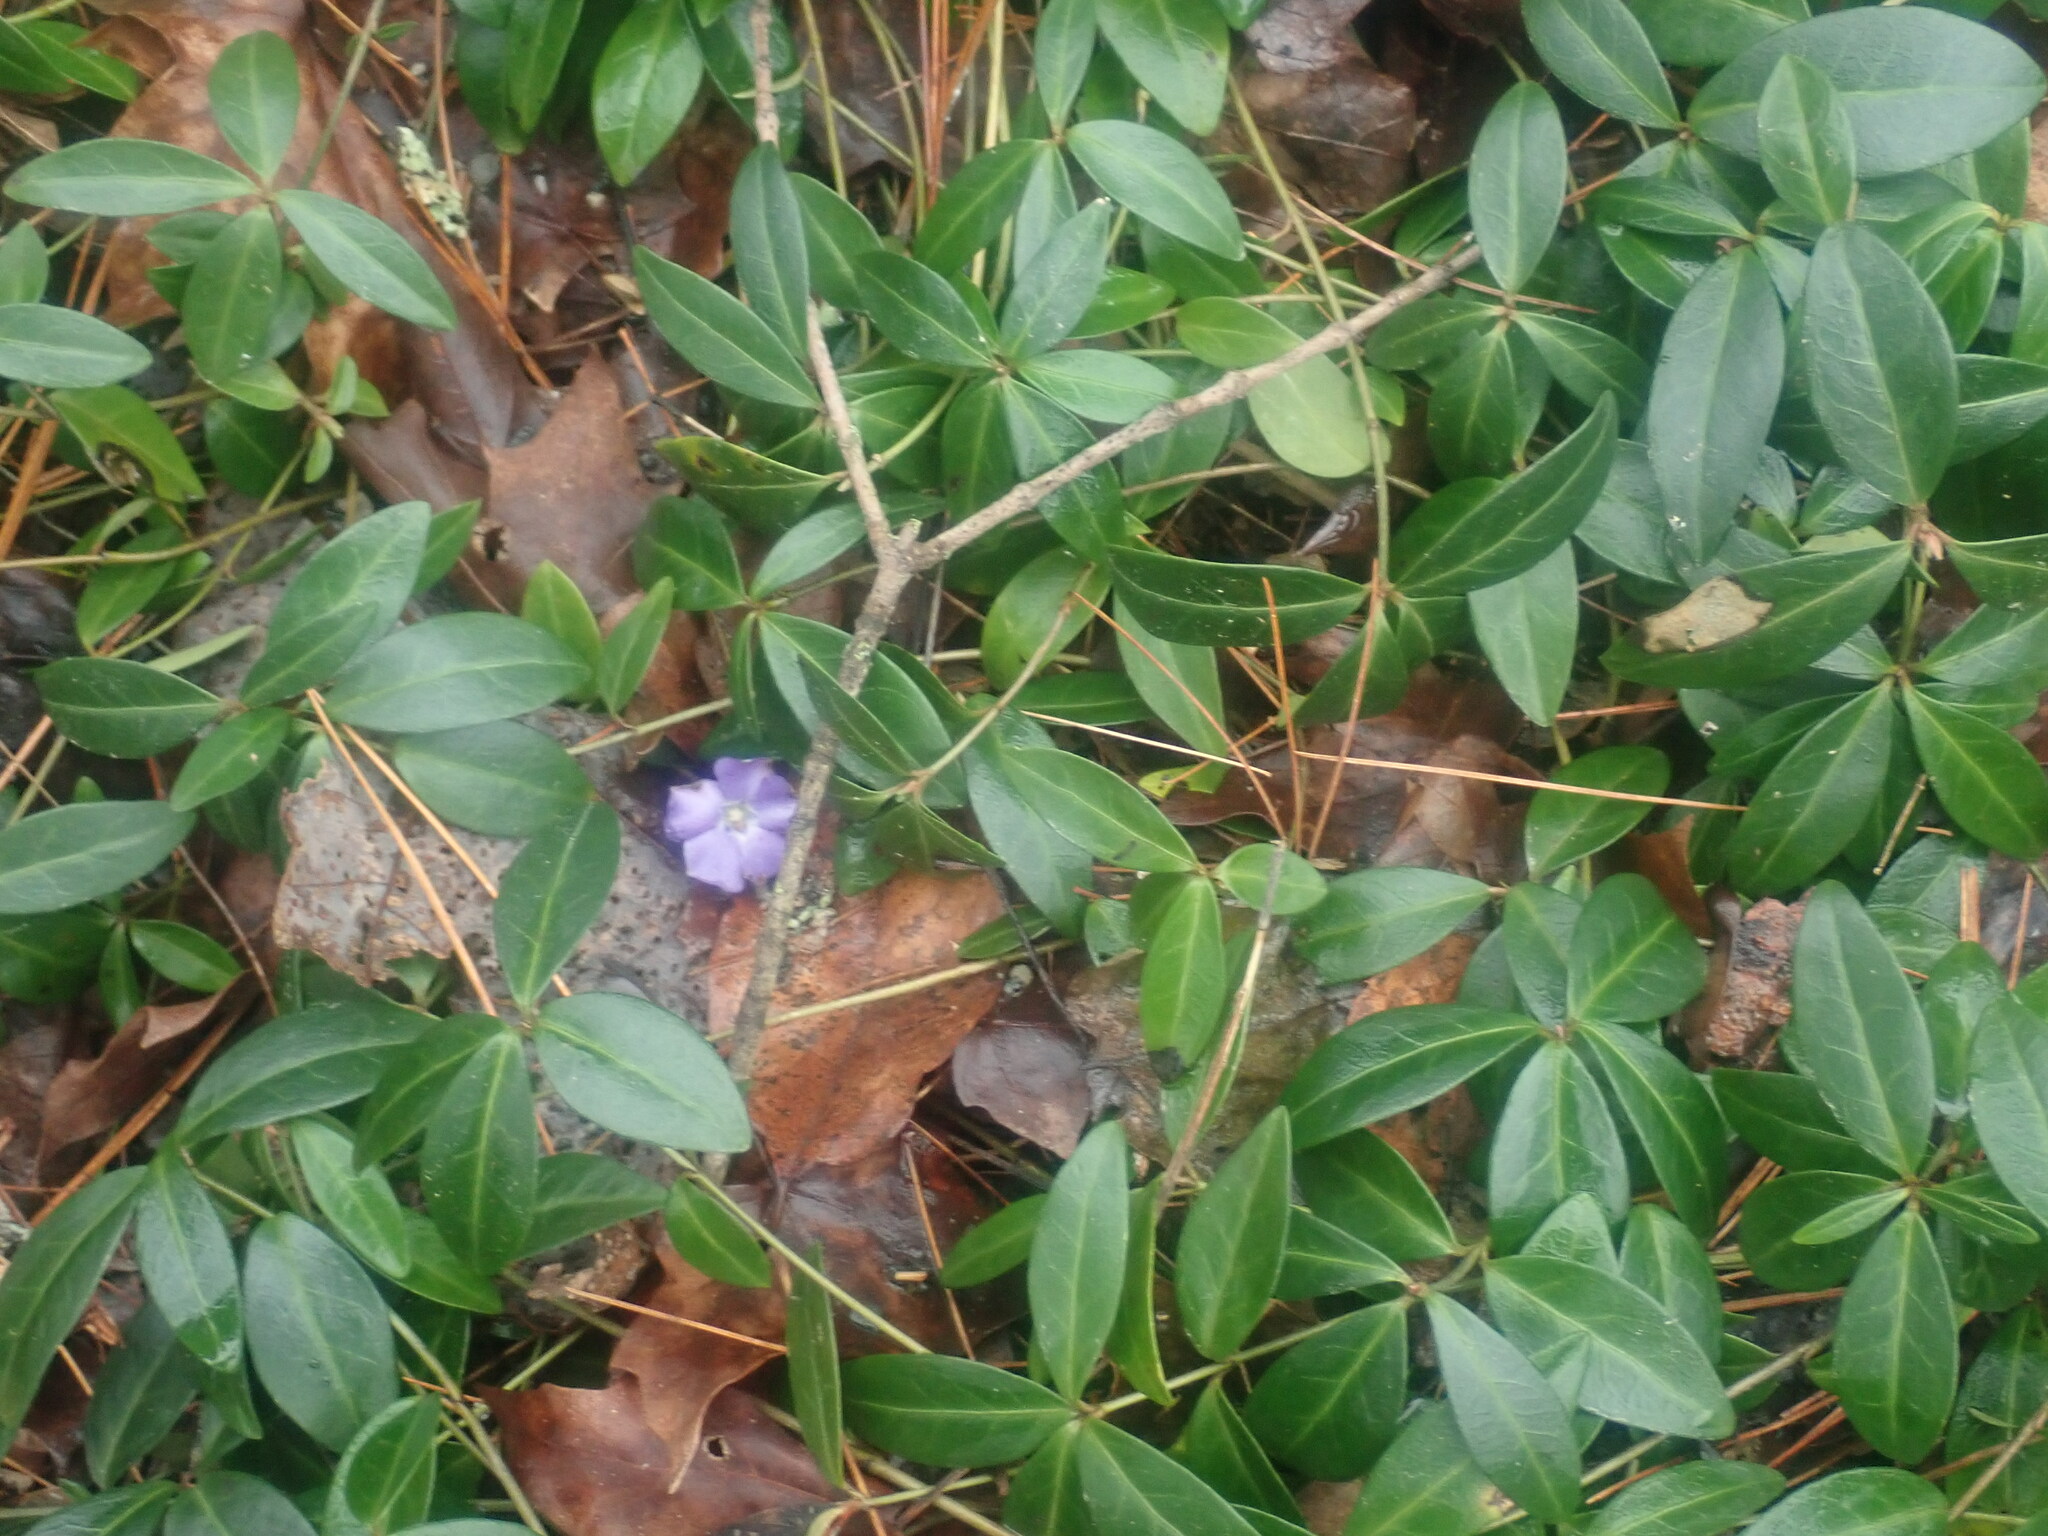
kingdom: Plantae
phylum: Tracheophyta
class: Magnoliopsida
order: Gentianales
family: Apocynaceae
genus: Vinca
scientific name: Vinca minor
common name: Lesser periwinkle
